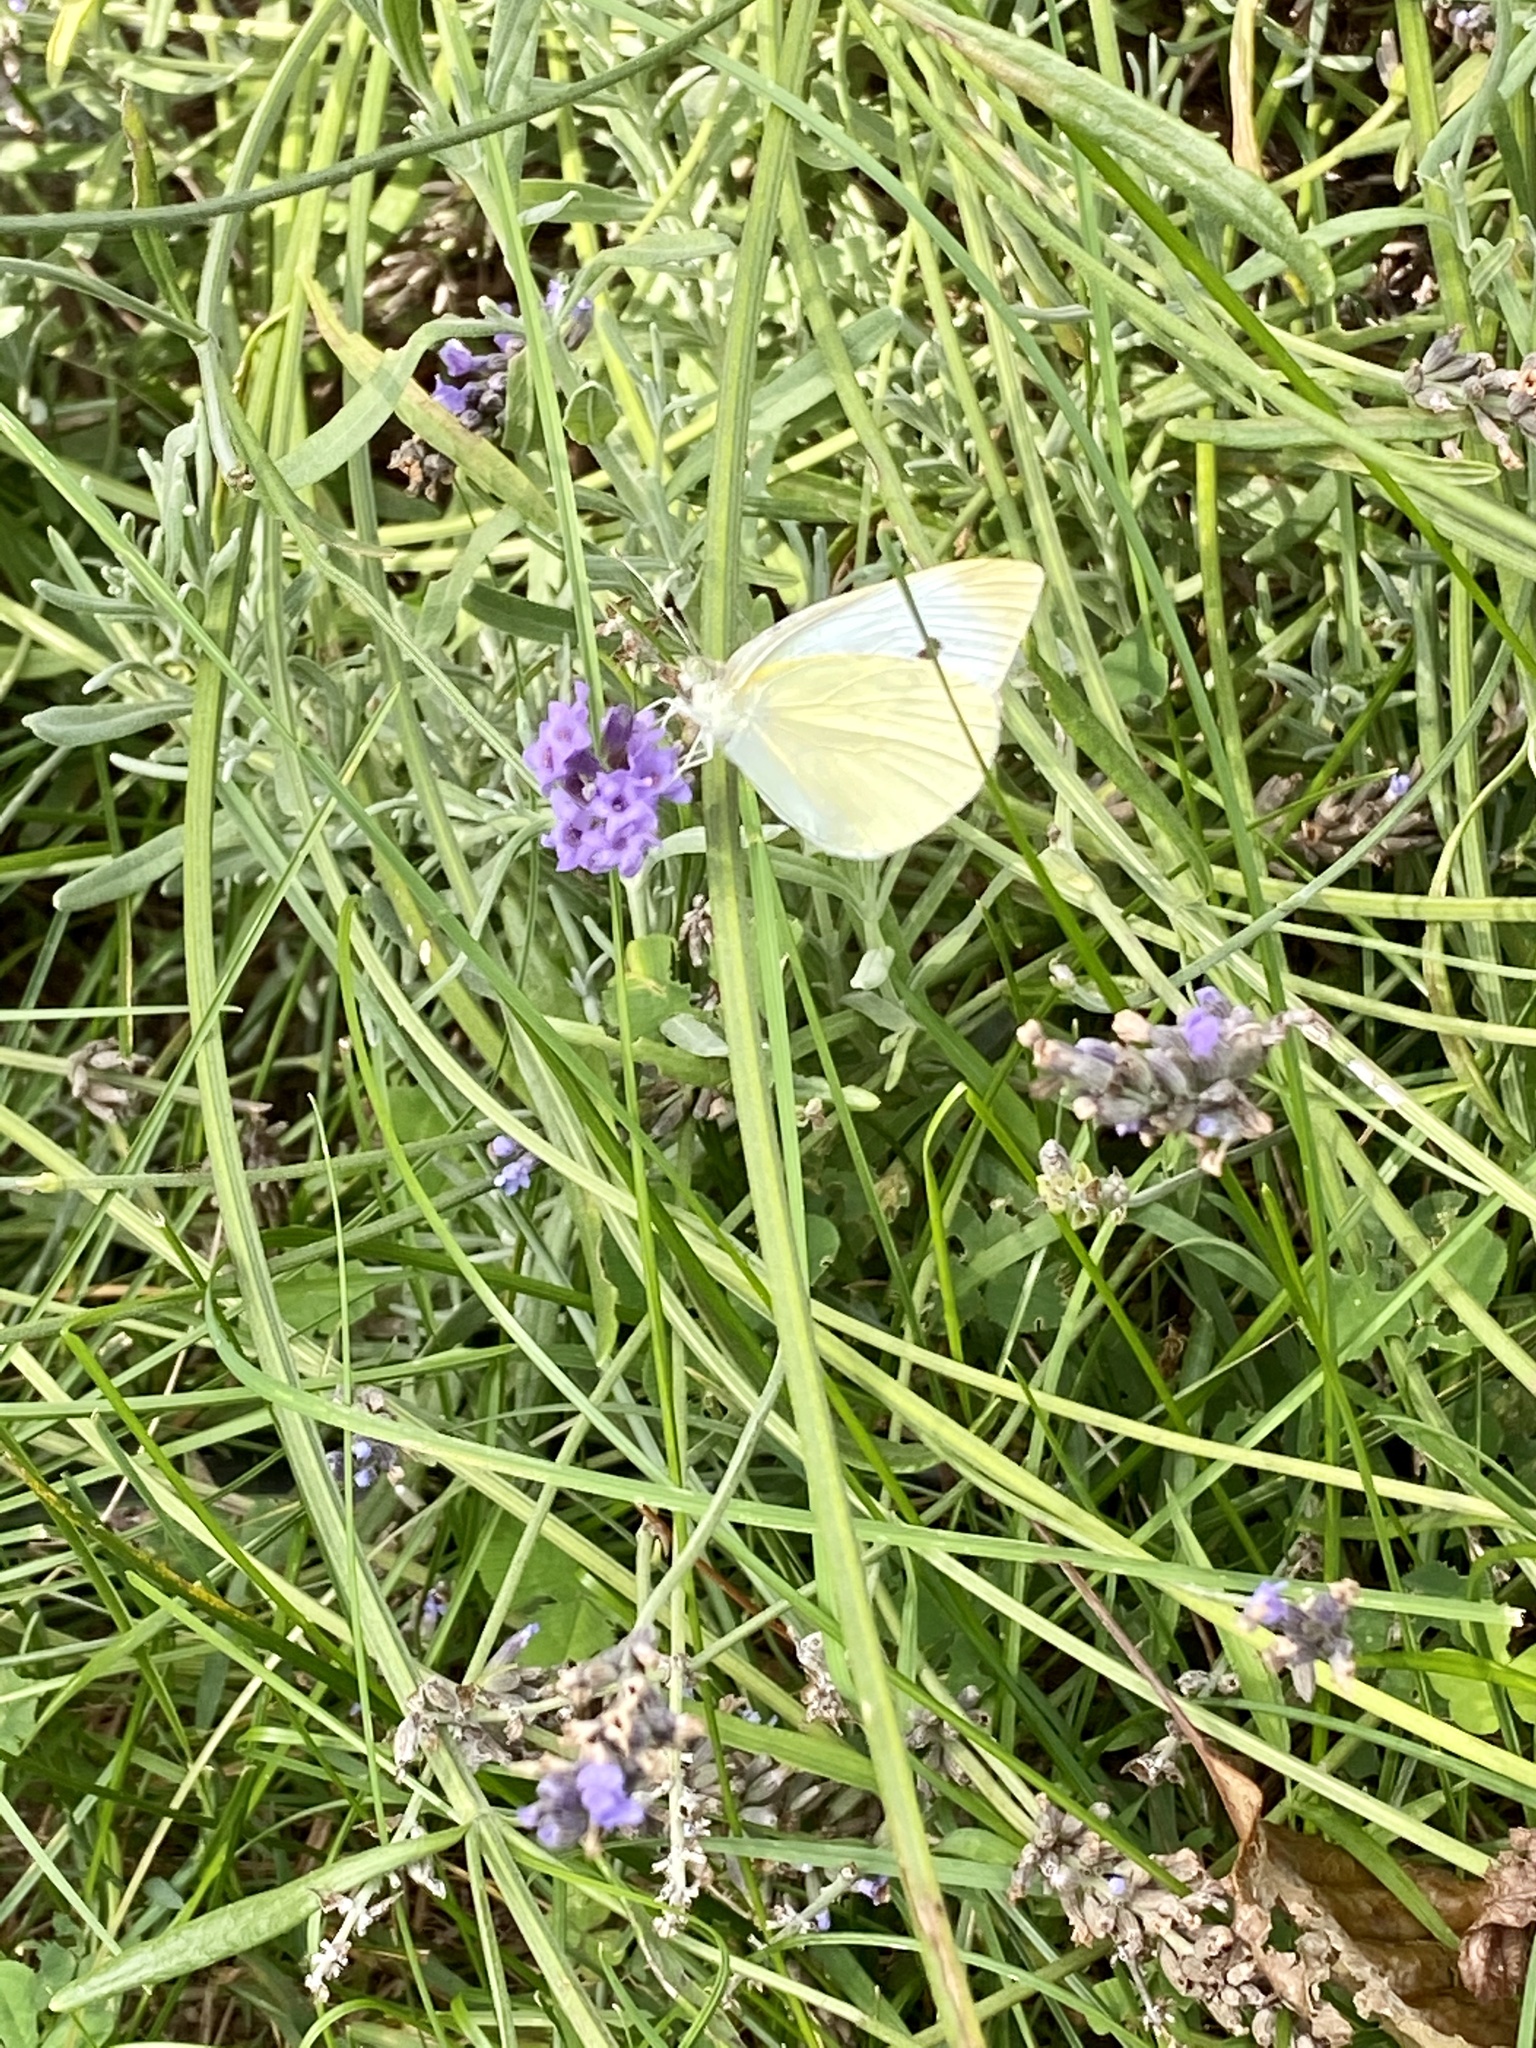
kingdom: Animalia
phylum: Arthropoda
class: Insecta
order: Lepidoptera
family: Pieridae
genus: Pieris
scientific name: Pieris rapae
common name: Small white
